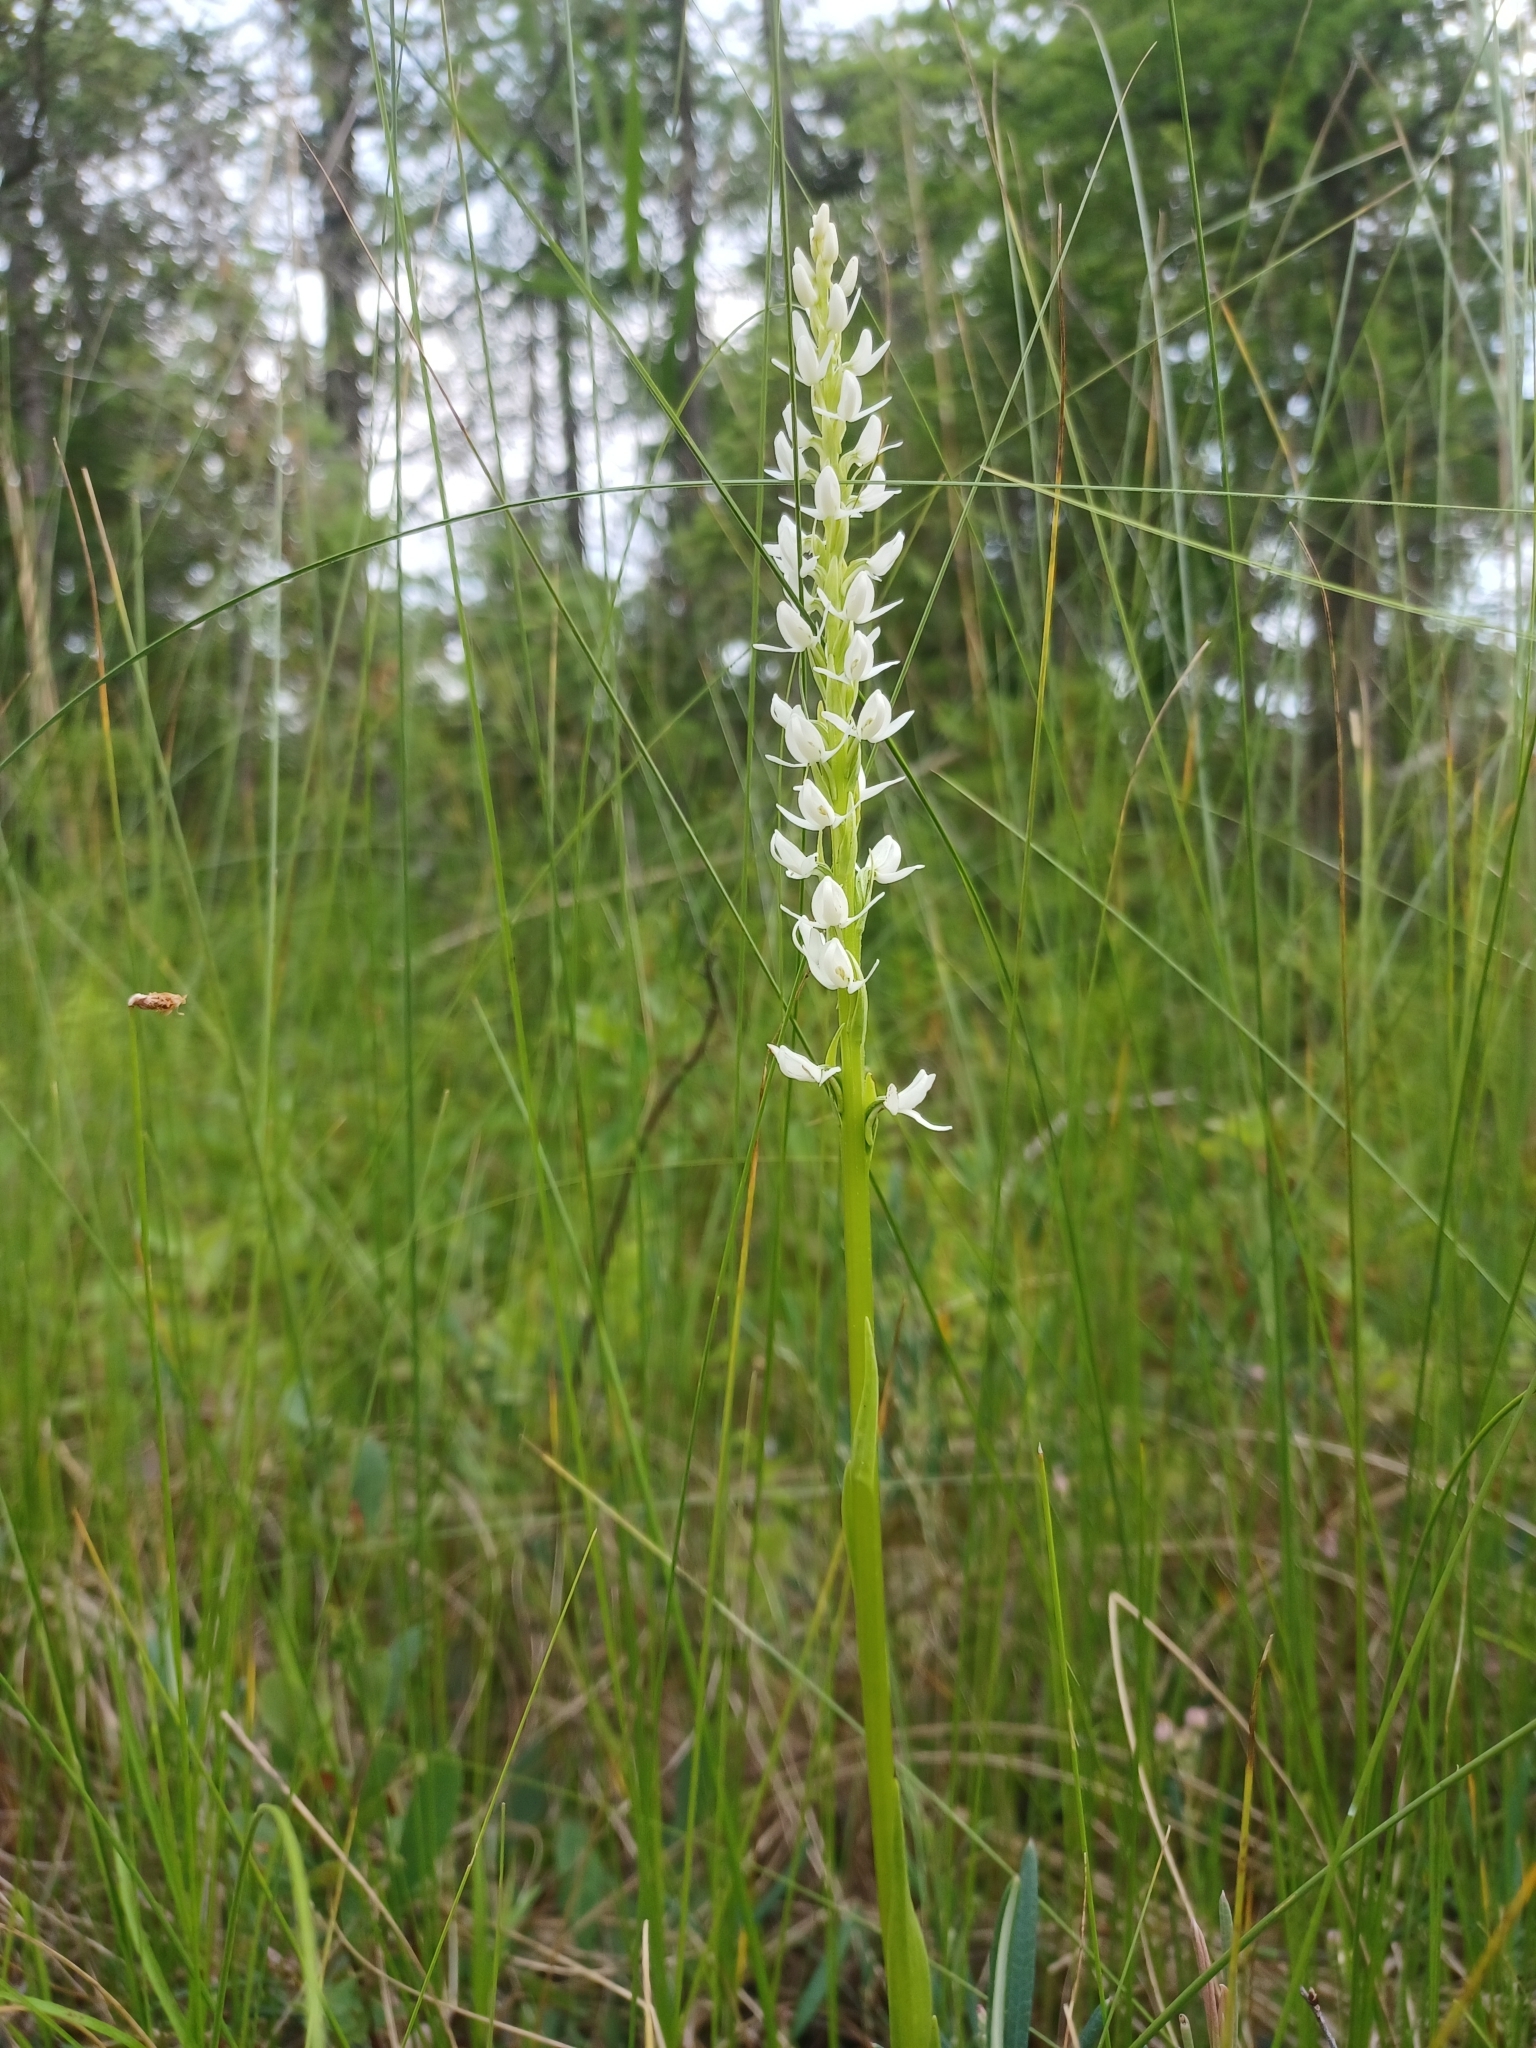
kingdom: Plantae
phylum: Tracheophyta
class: Liliopsida
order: Asparagales
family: Orchidaceae
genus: Platanthera
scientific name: Platanthera dilatata
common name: Bog candles
